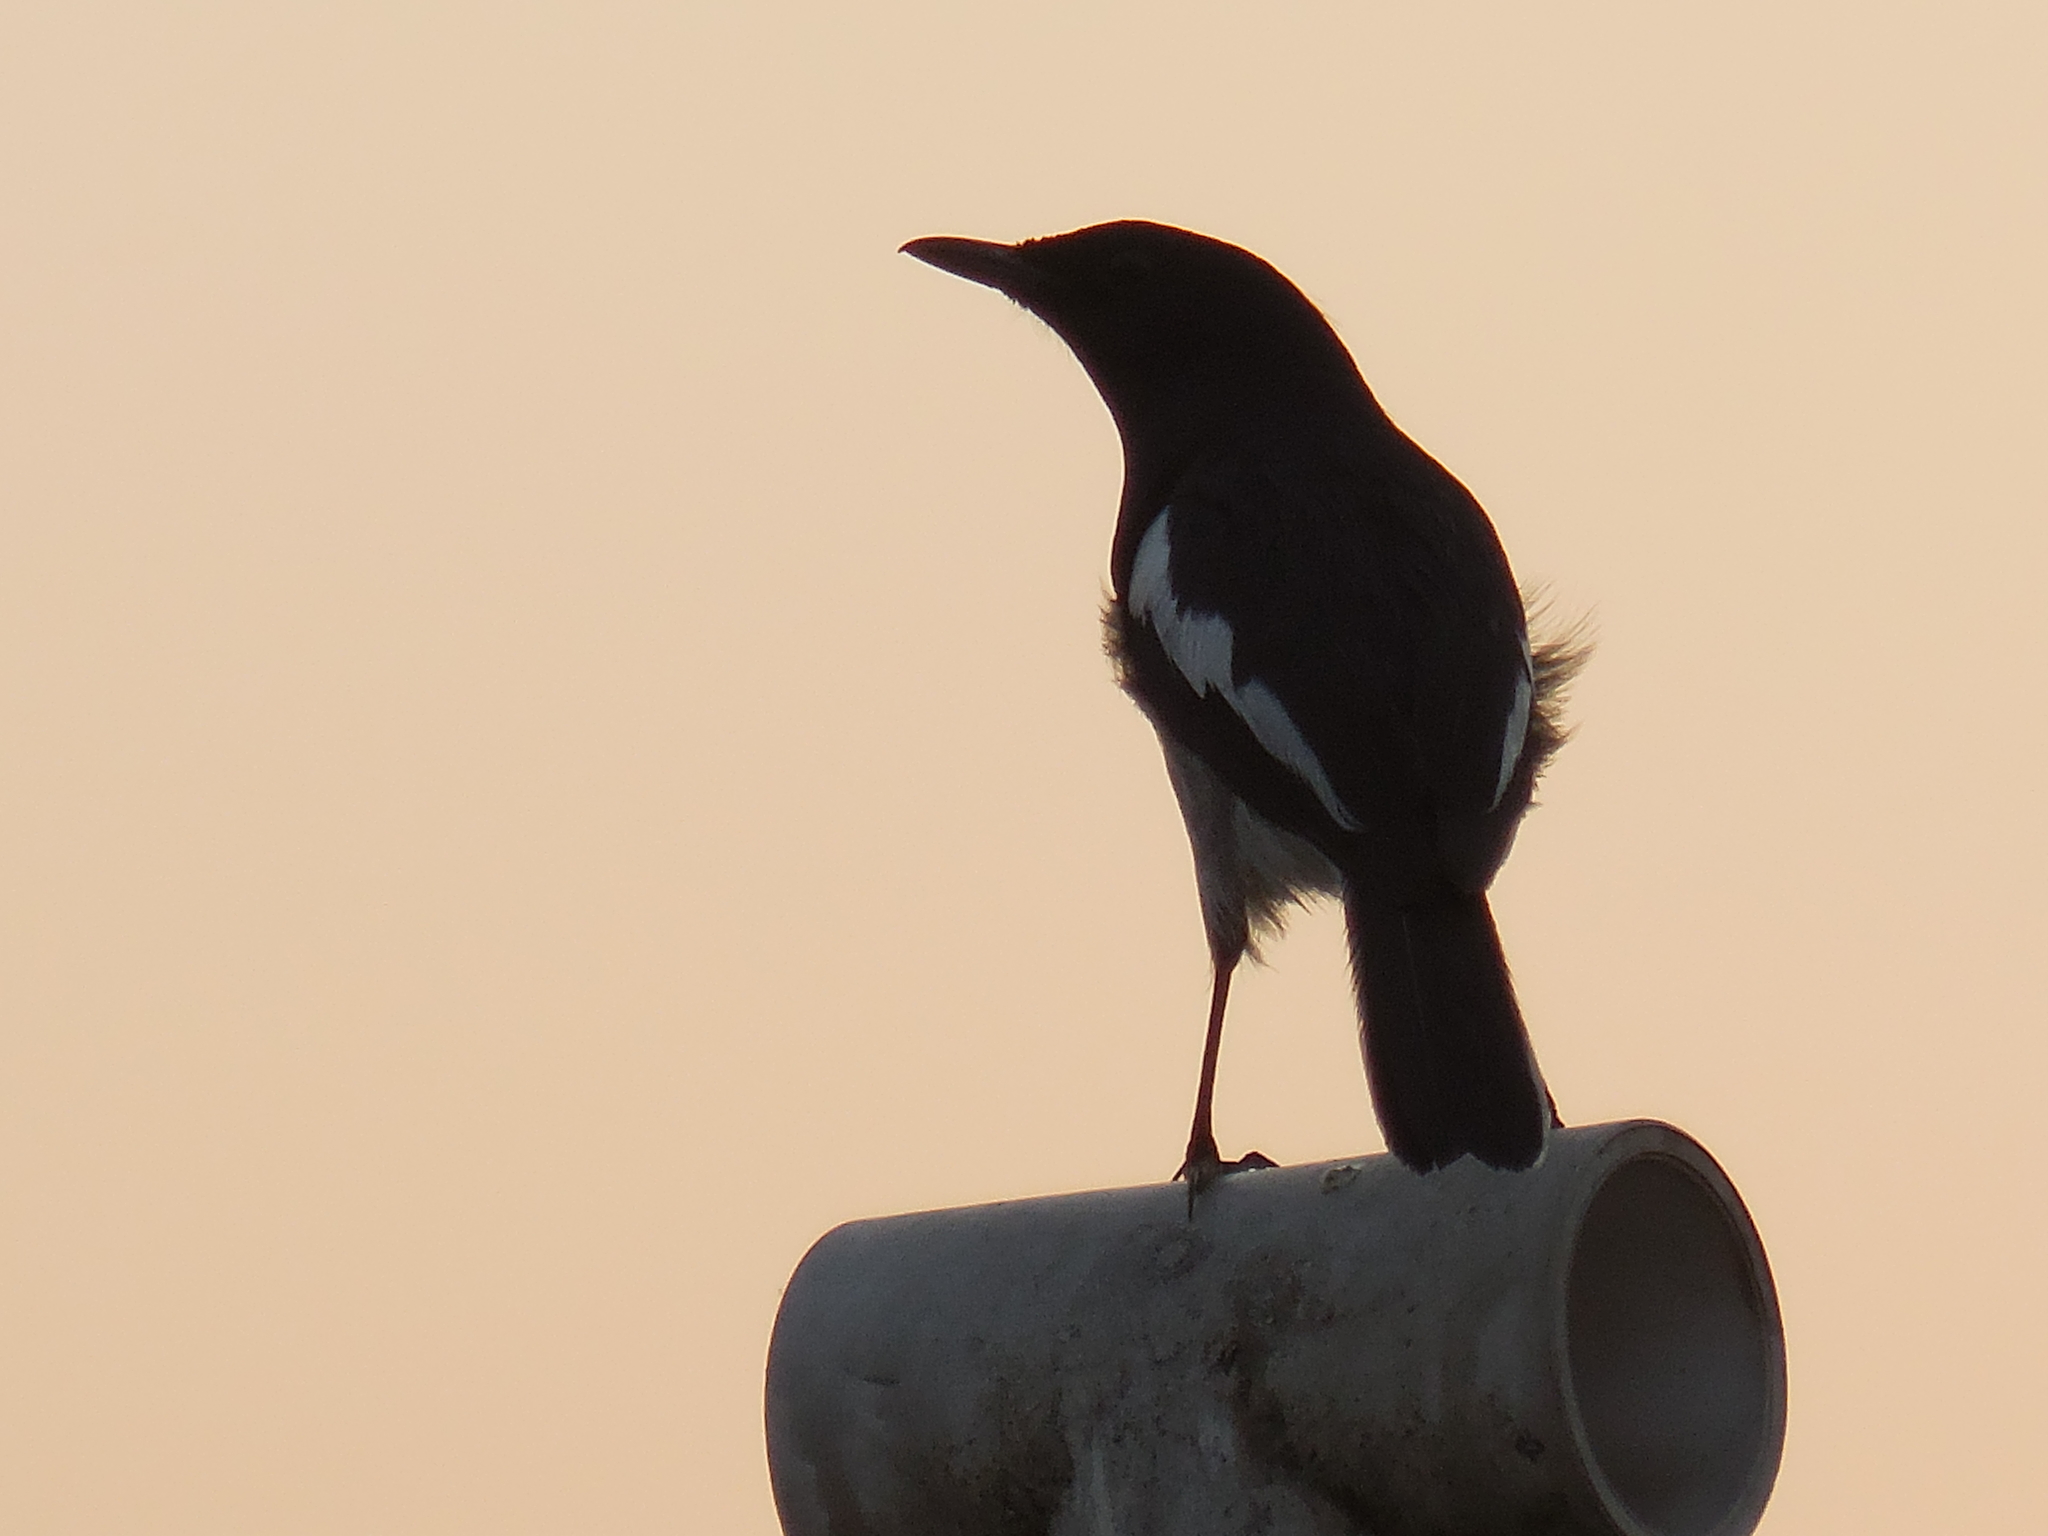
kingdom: Animalia
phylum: Chordata
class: Aves
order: Passeriformes
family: Muscicapidae
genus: Copsychus
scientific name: Copsychus saularis
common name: Oriental magpie-robin
